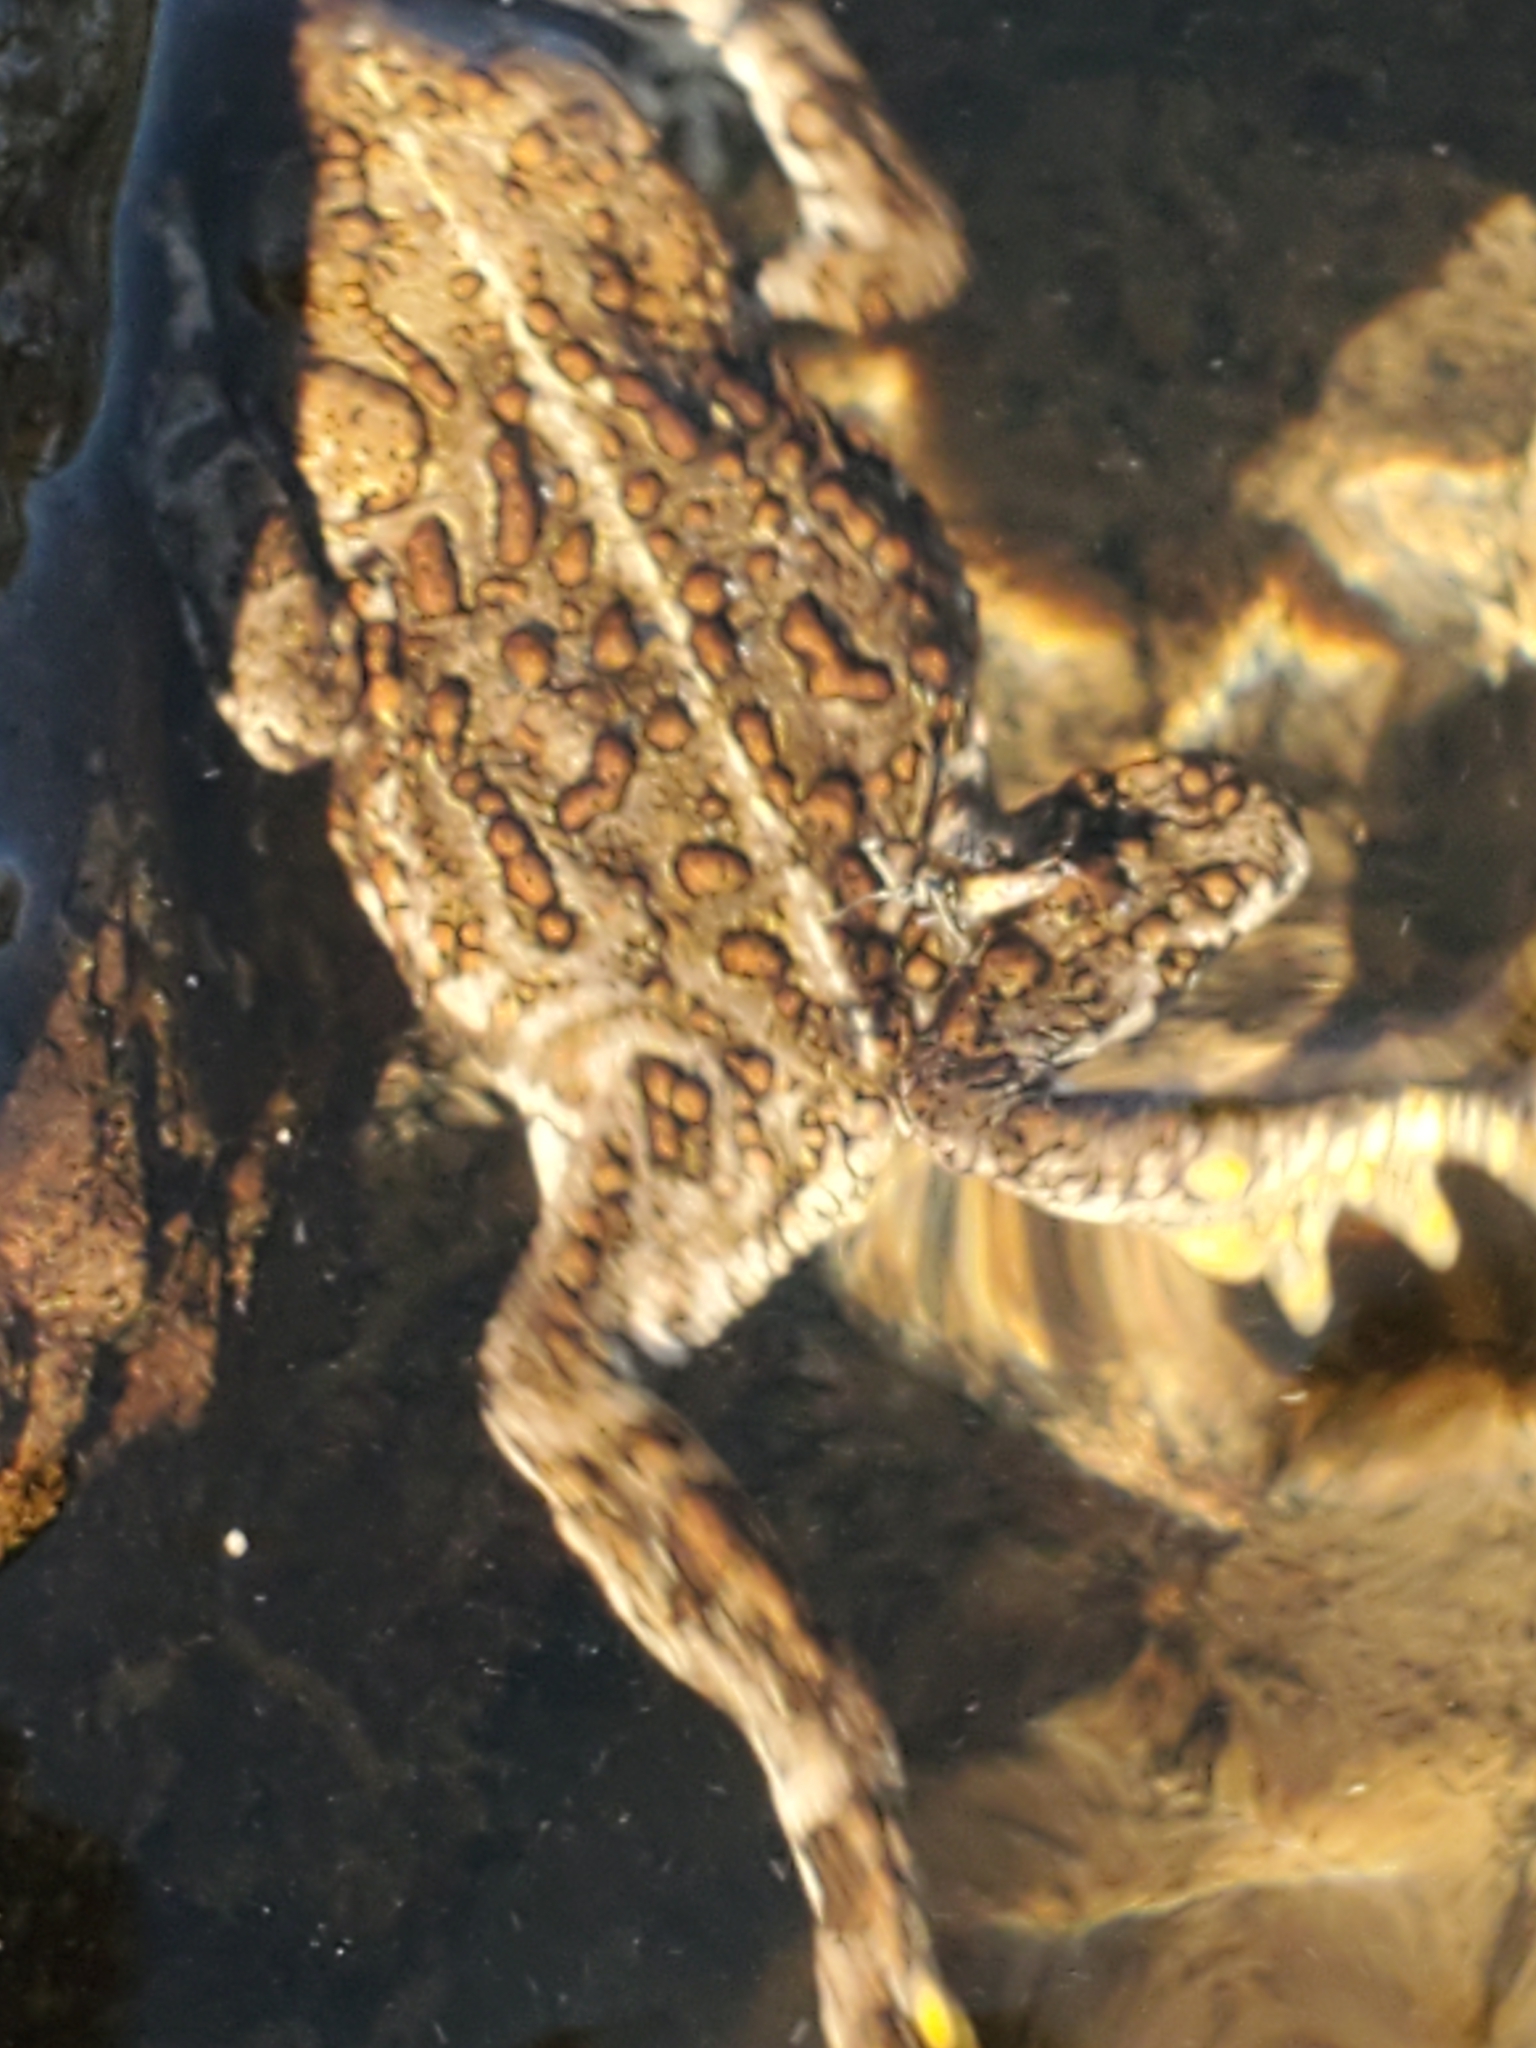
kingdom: Animalia
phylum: Chordata
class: Amphibia
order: Anura
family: Bufonidae
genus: Anaxyrus
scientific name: Anaxyrus boreas
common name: Western toad
